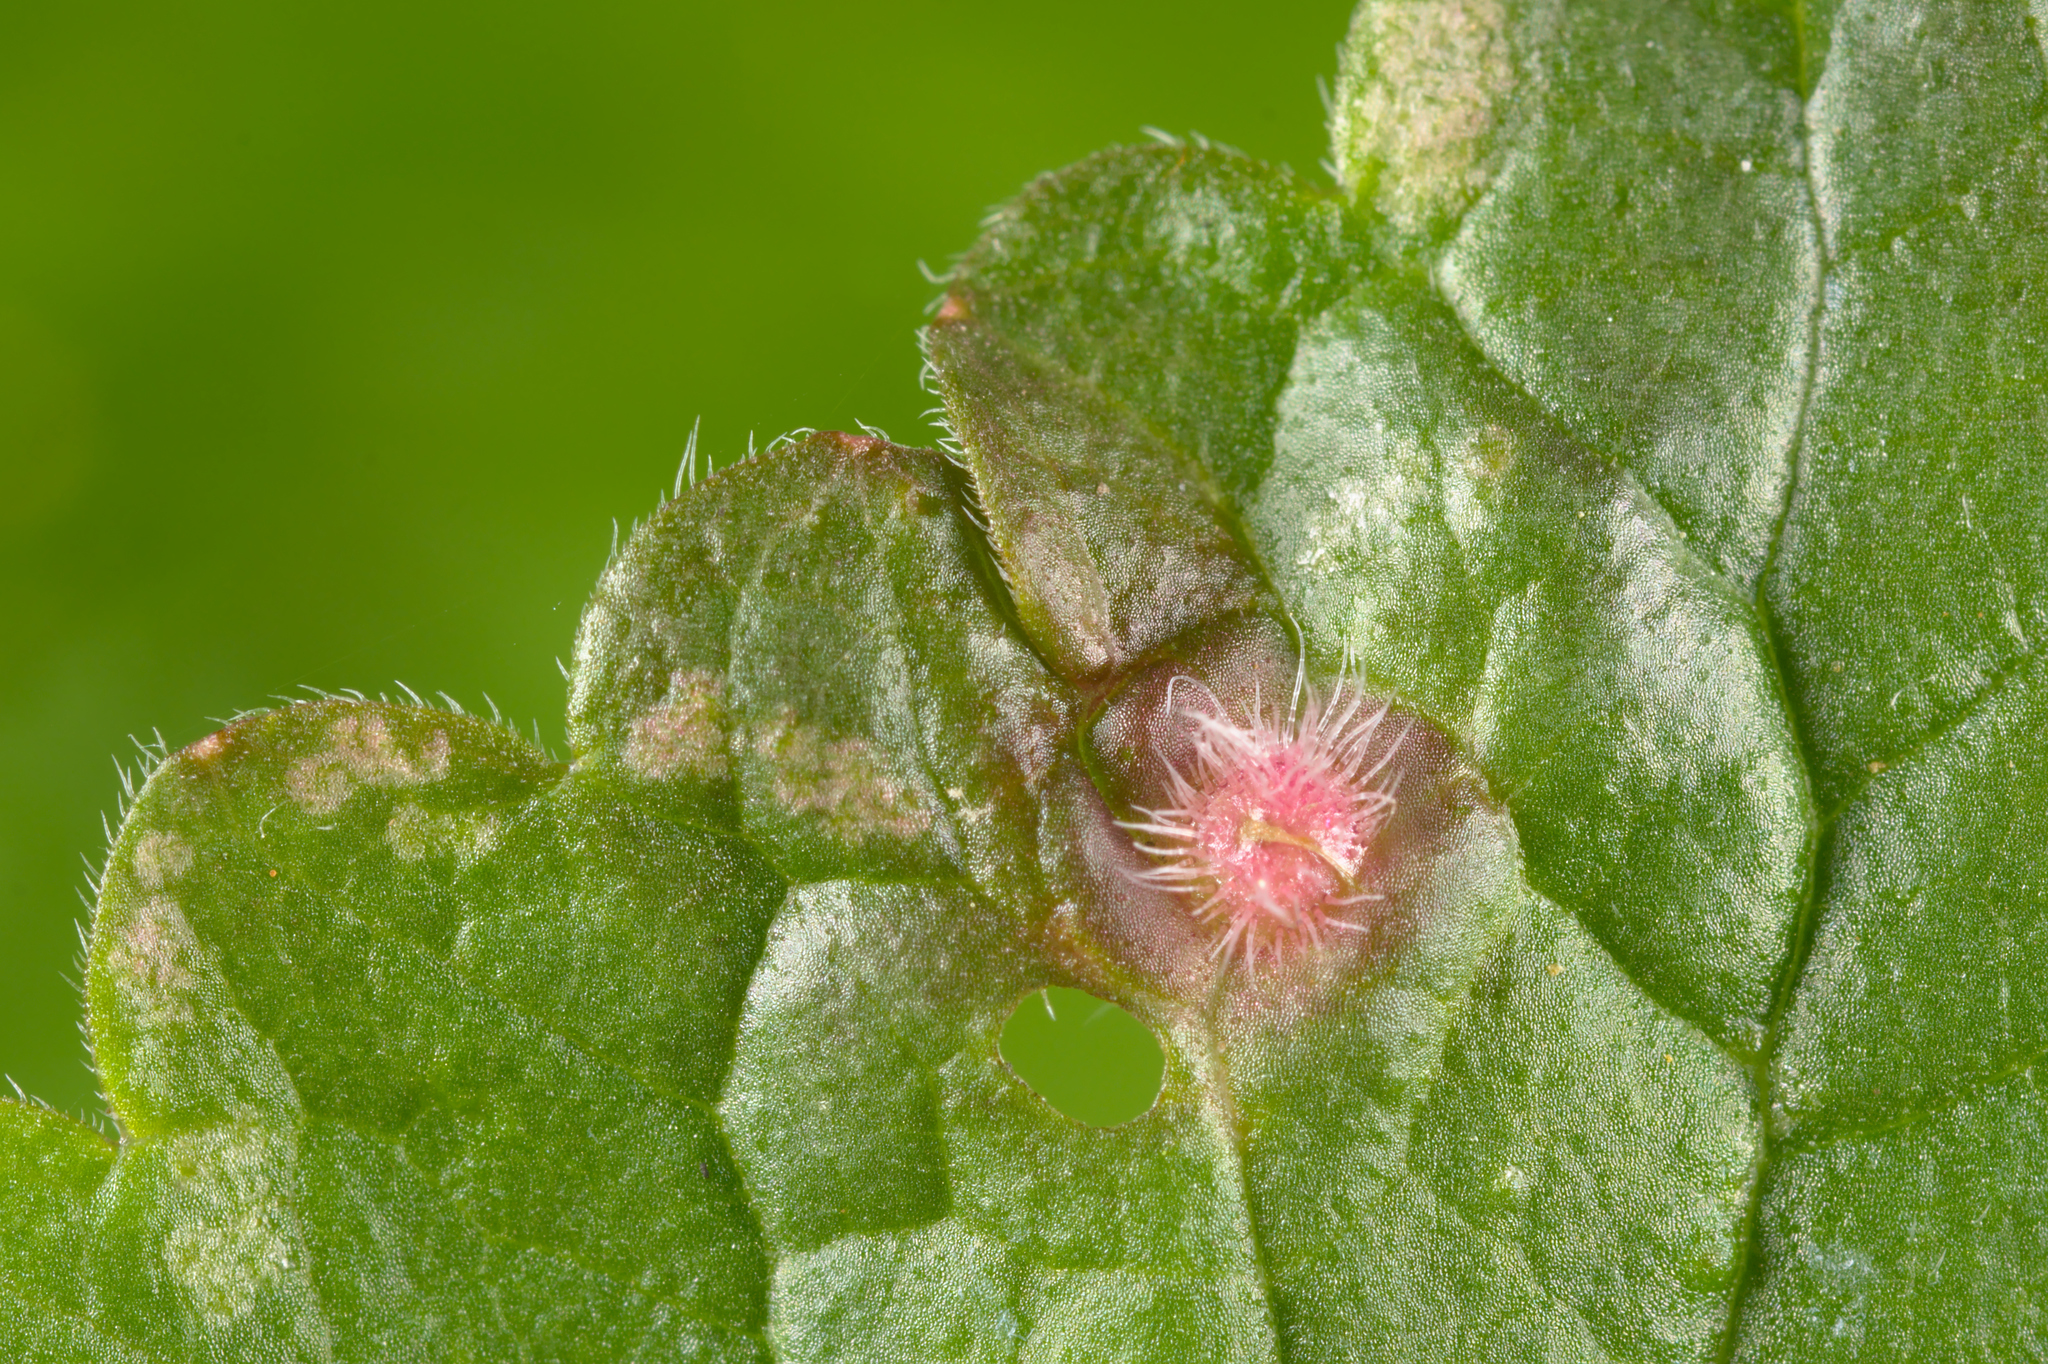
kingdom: Animalia
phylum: Arthropoda
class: Insecta
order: Hymenoptera
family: Cynipidae
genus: Liposthenes
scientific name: Liposthenes glechomae
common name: Gall wasp
